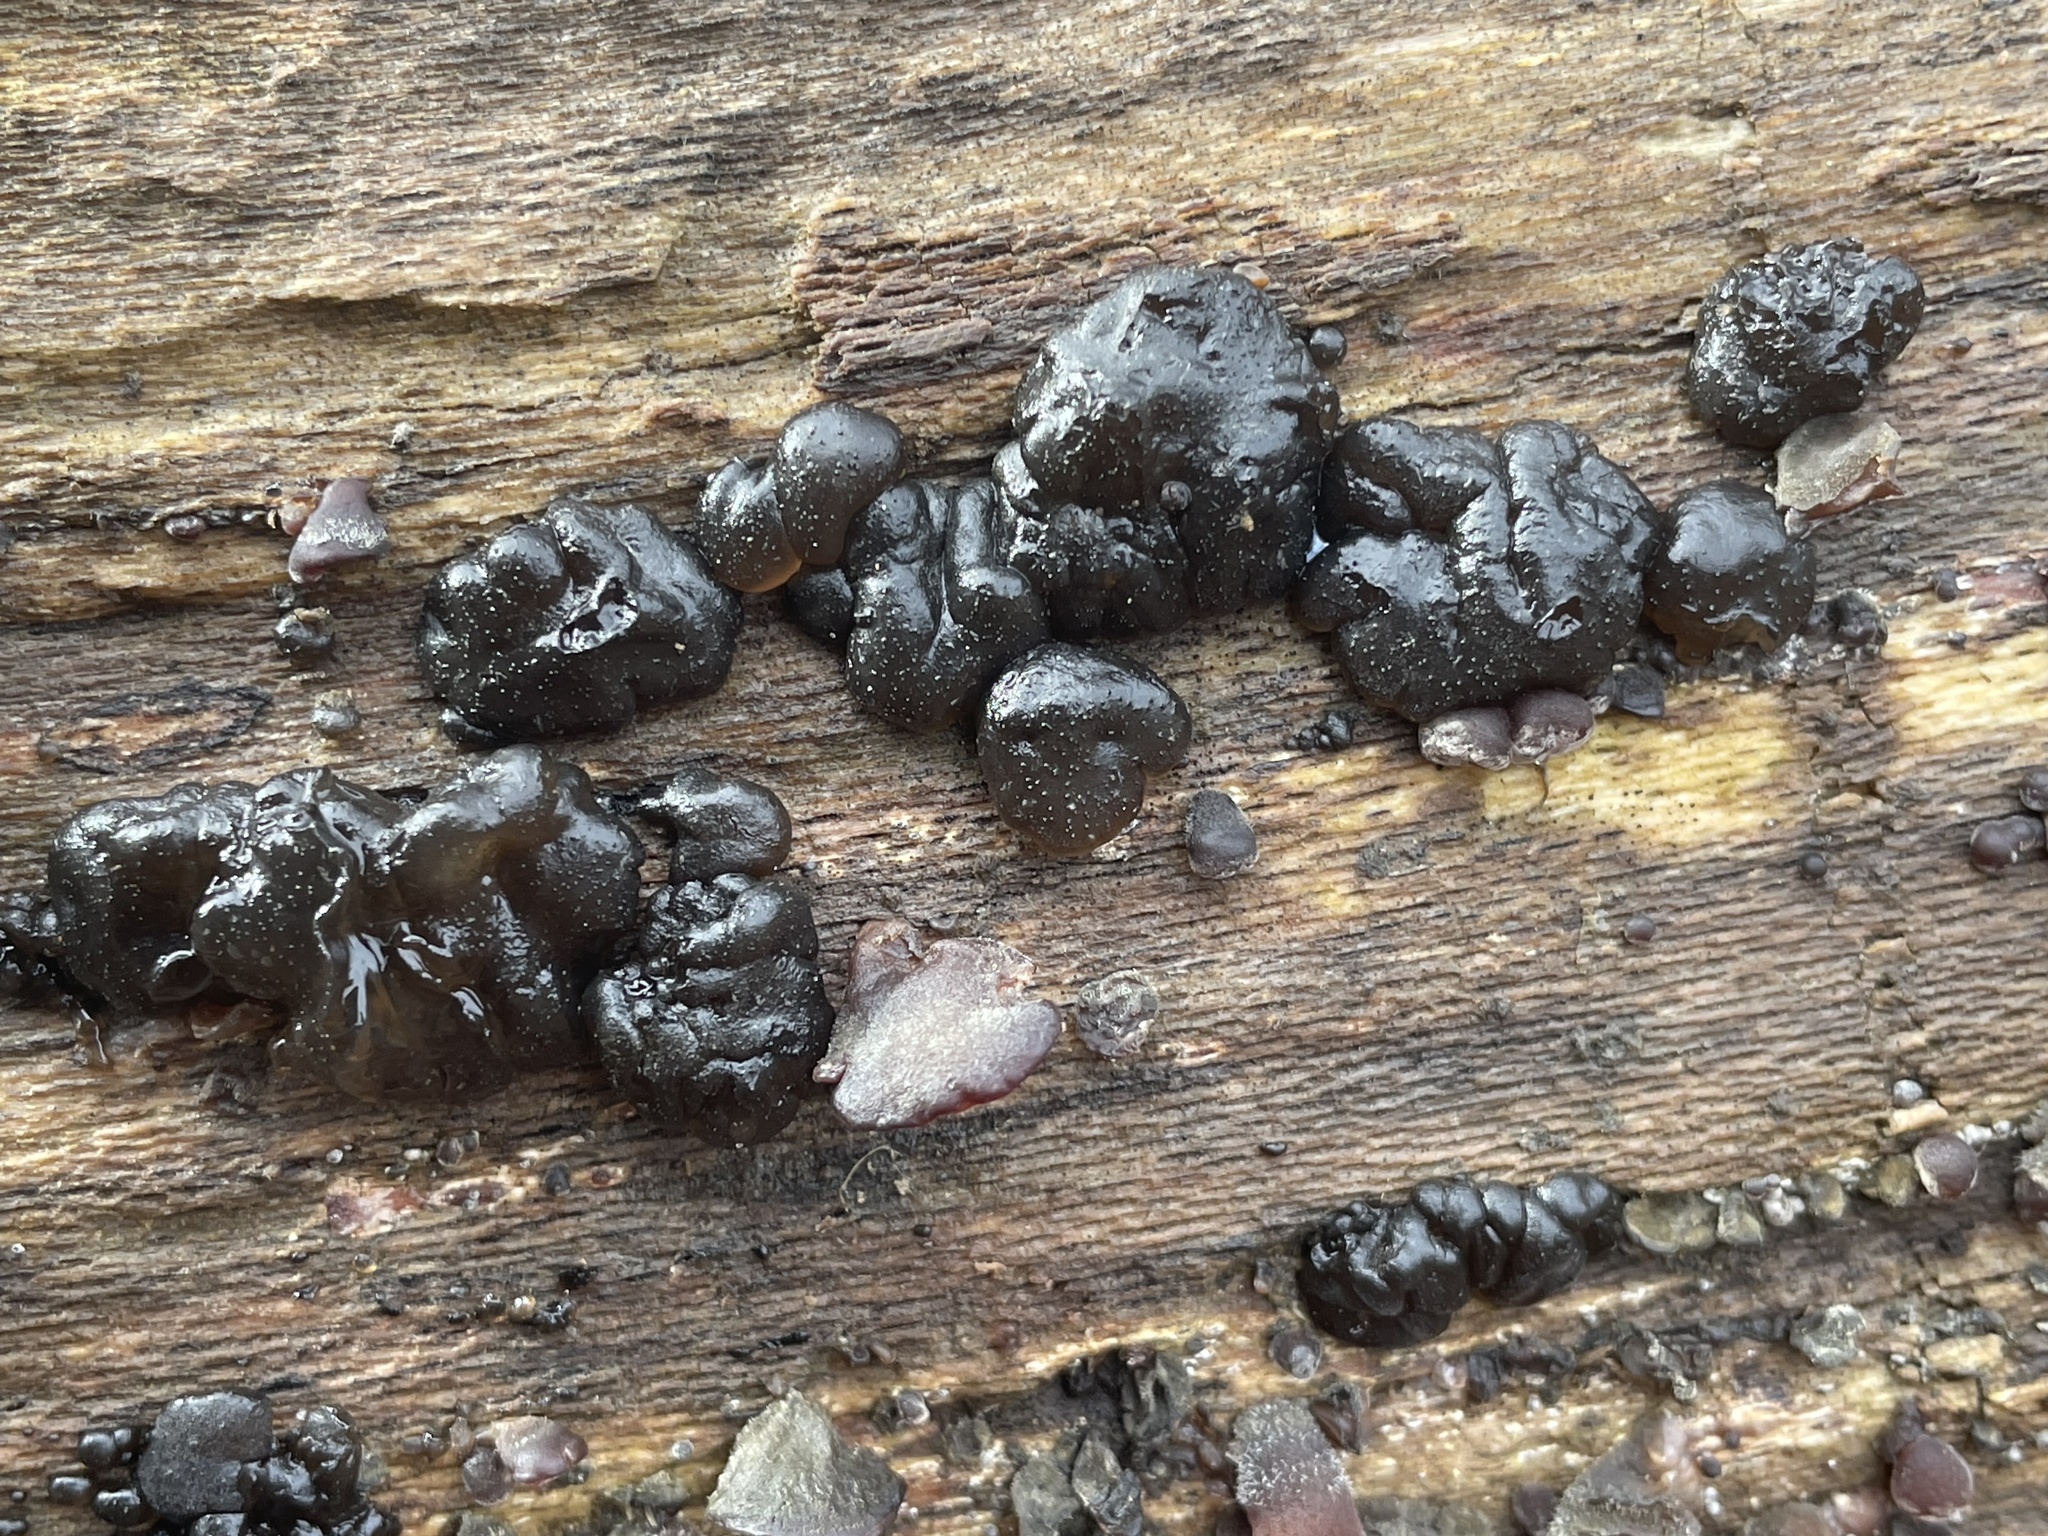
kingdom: Fungi
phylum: Basidiomycota
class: Agaricomycetes
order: Auriculariales
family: Auriculariaceae
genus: Exidia
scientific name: Exidia nigricans
